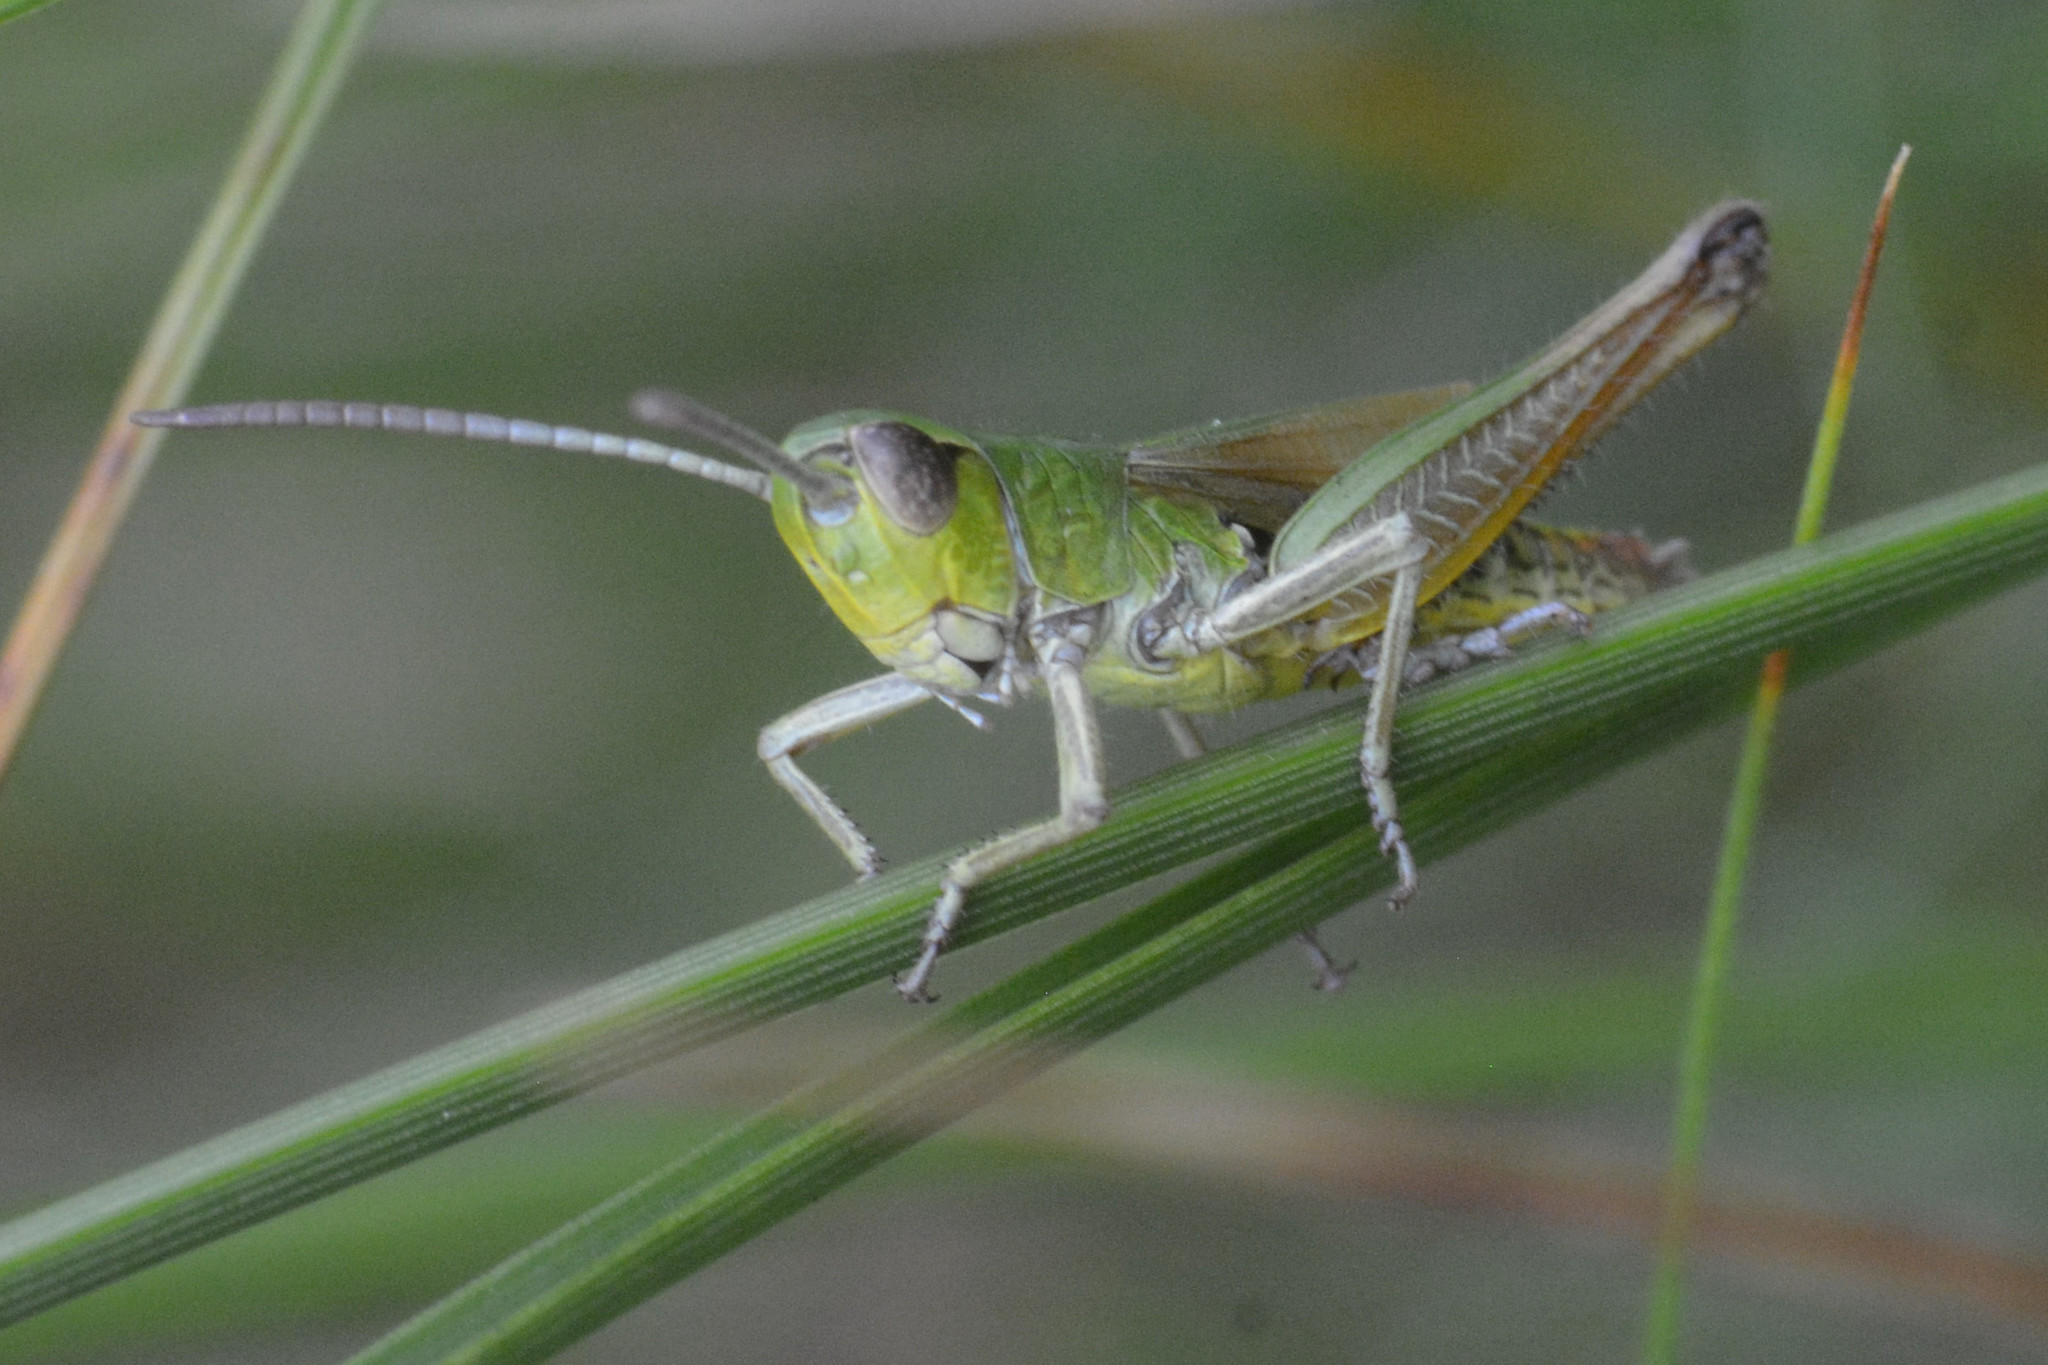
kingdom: Animalia
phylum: Arthropoda
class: Insecta
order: Orthoptera
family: Acrididae
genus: Pseudochorthippus
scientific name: Pseudochorthippus parallelus
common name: Meadow grasshopper
